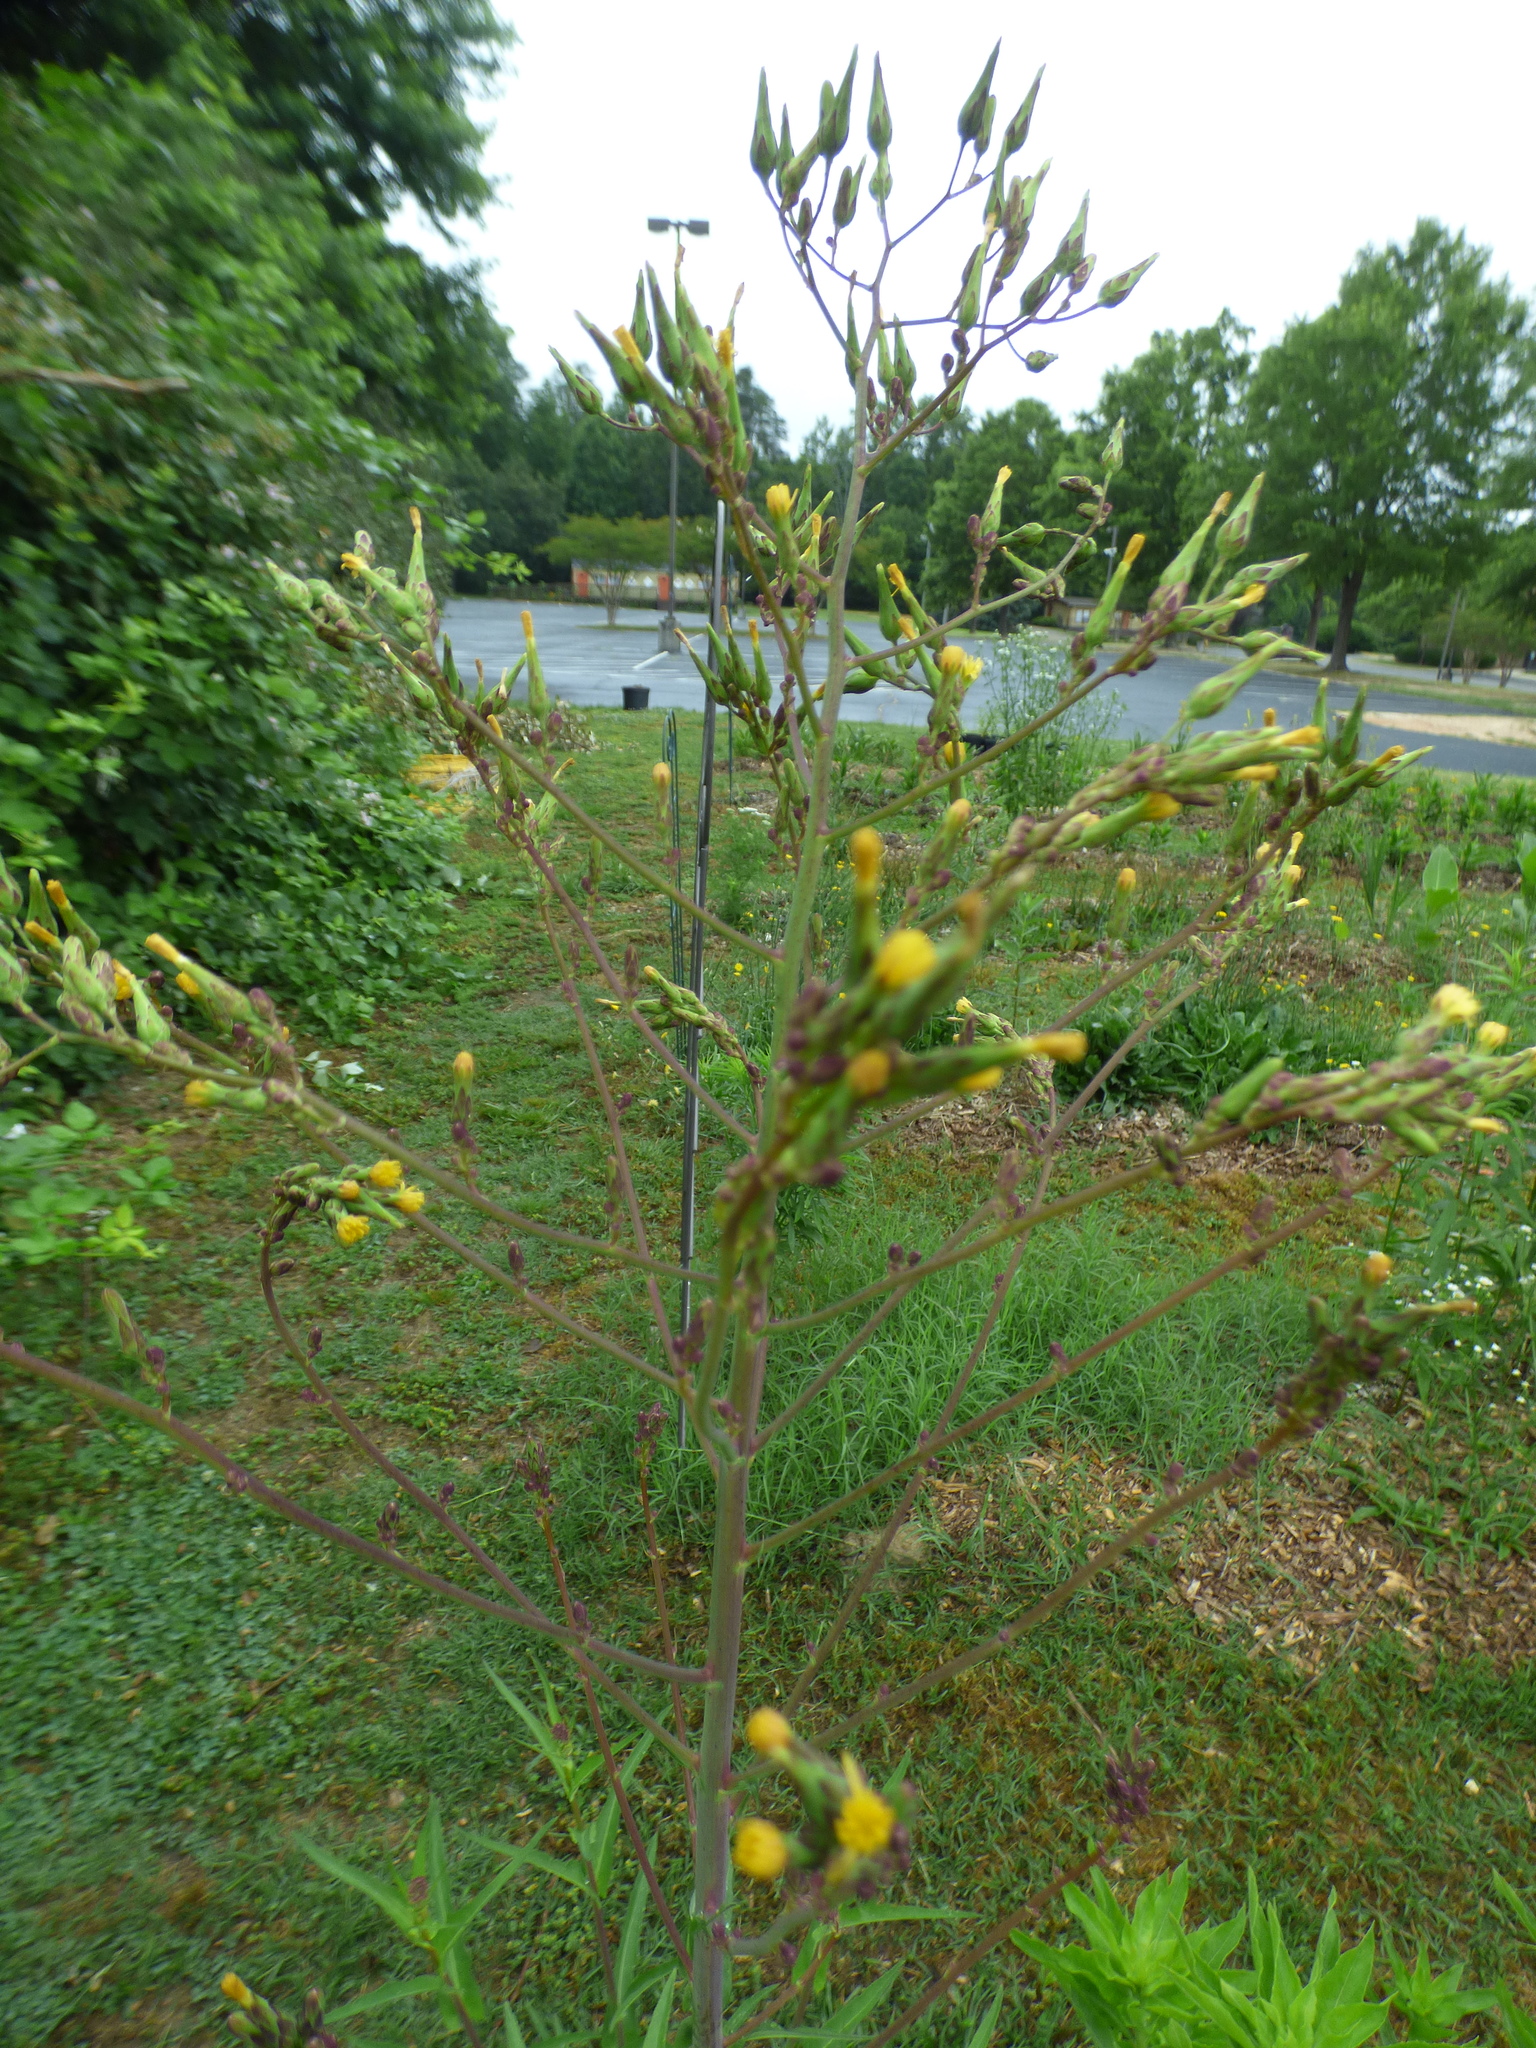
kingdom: Plantae
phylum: Tracheophyta
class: Magnoliopsida
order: Asterales
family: Asteraceae
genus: Lactuca
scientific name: Lactuca canadensis
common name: Canada lettuce
